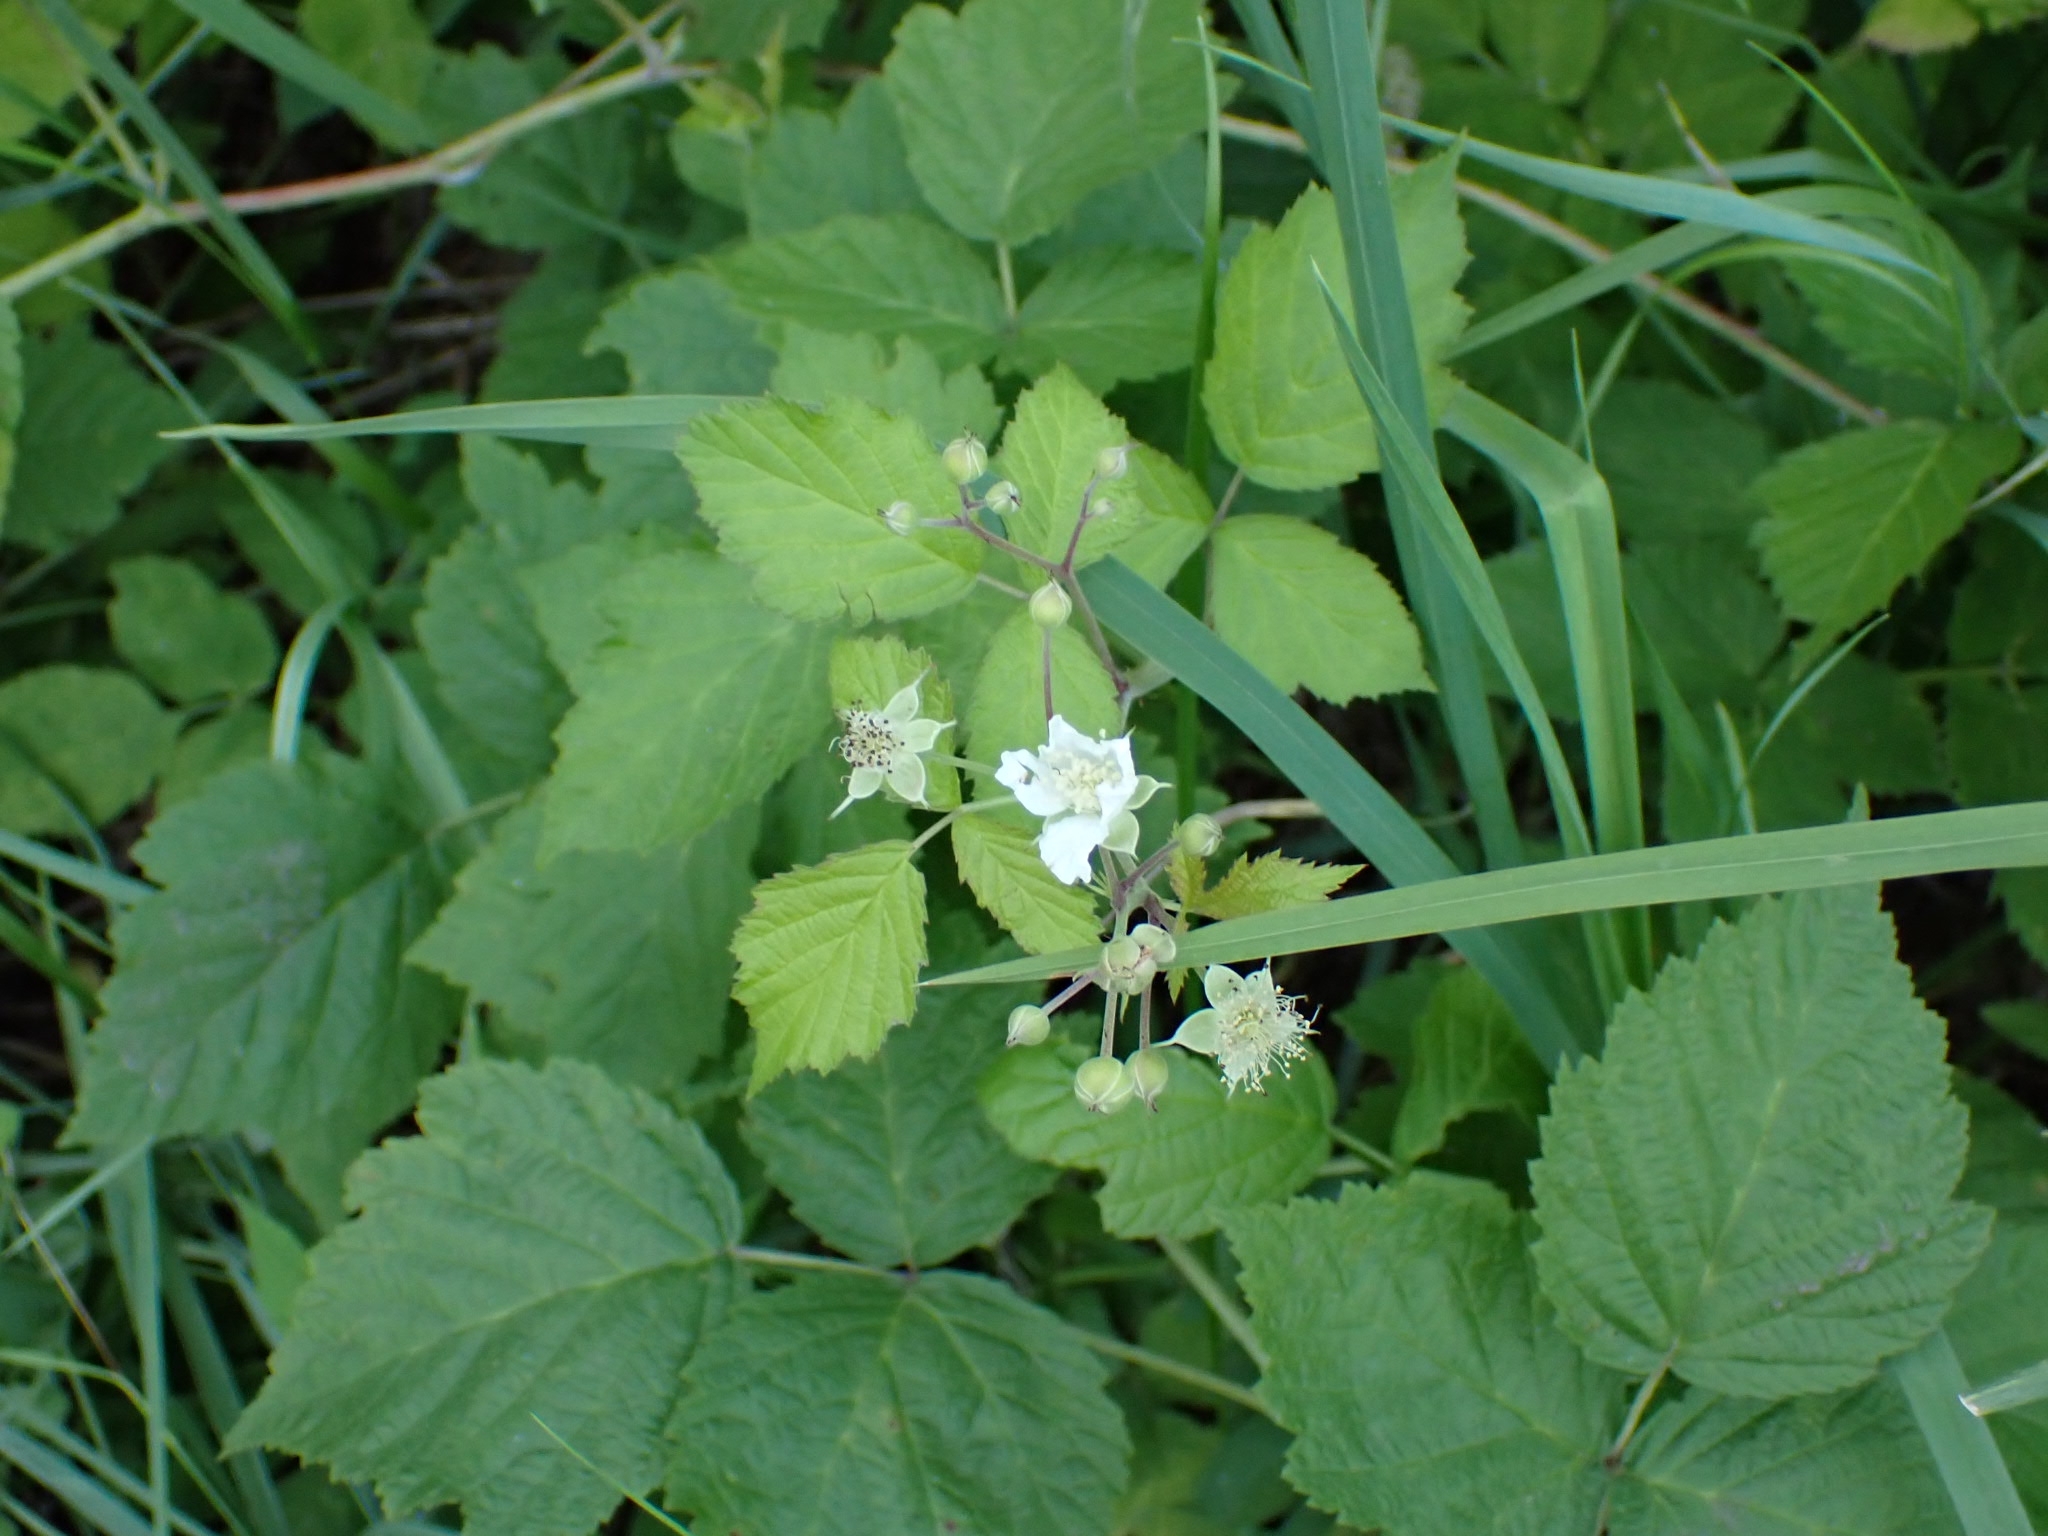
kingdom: Plantae
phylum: Tracheophyta
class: Magnoliopsida
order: Rosales
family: Rosaceae
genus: Rubus
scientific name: Rubus caesius
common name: Dewberry
